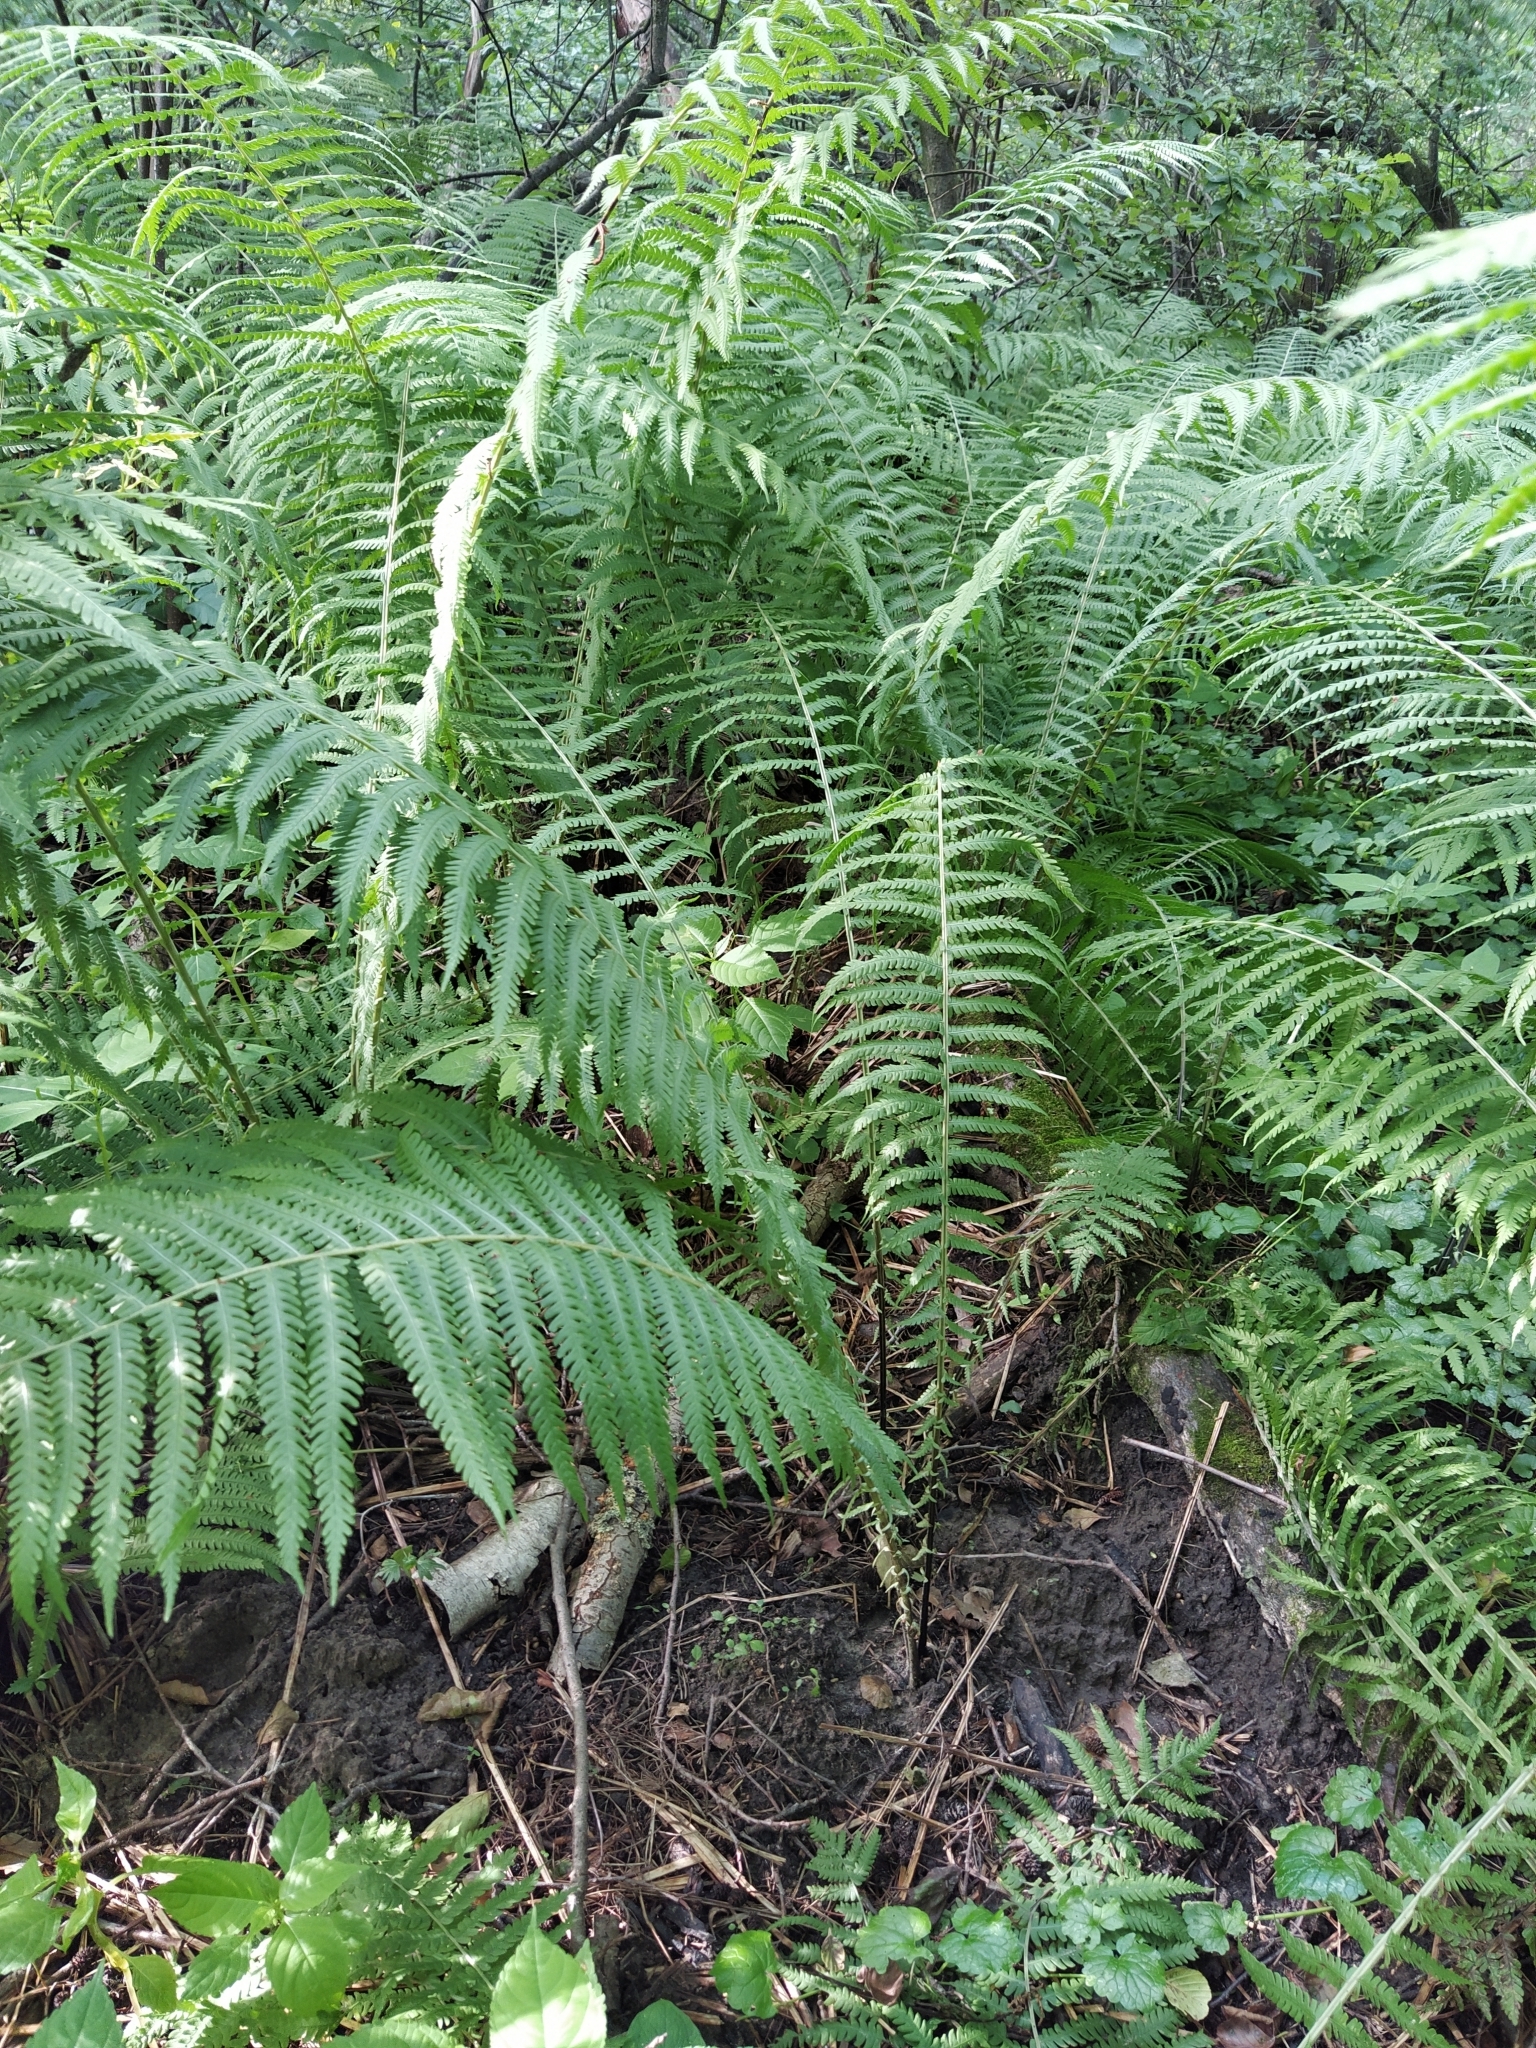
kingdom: Plantae
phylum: Tracheophyta
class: Polypodiopsida
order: Polypodiales
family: Onocleaceae
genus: Matteuccia
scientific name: Matteuccia struthiopteris
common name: Ostrich fern
